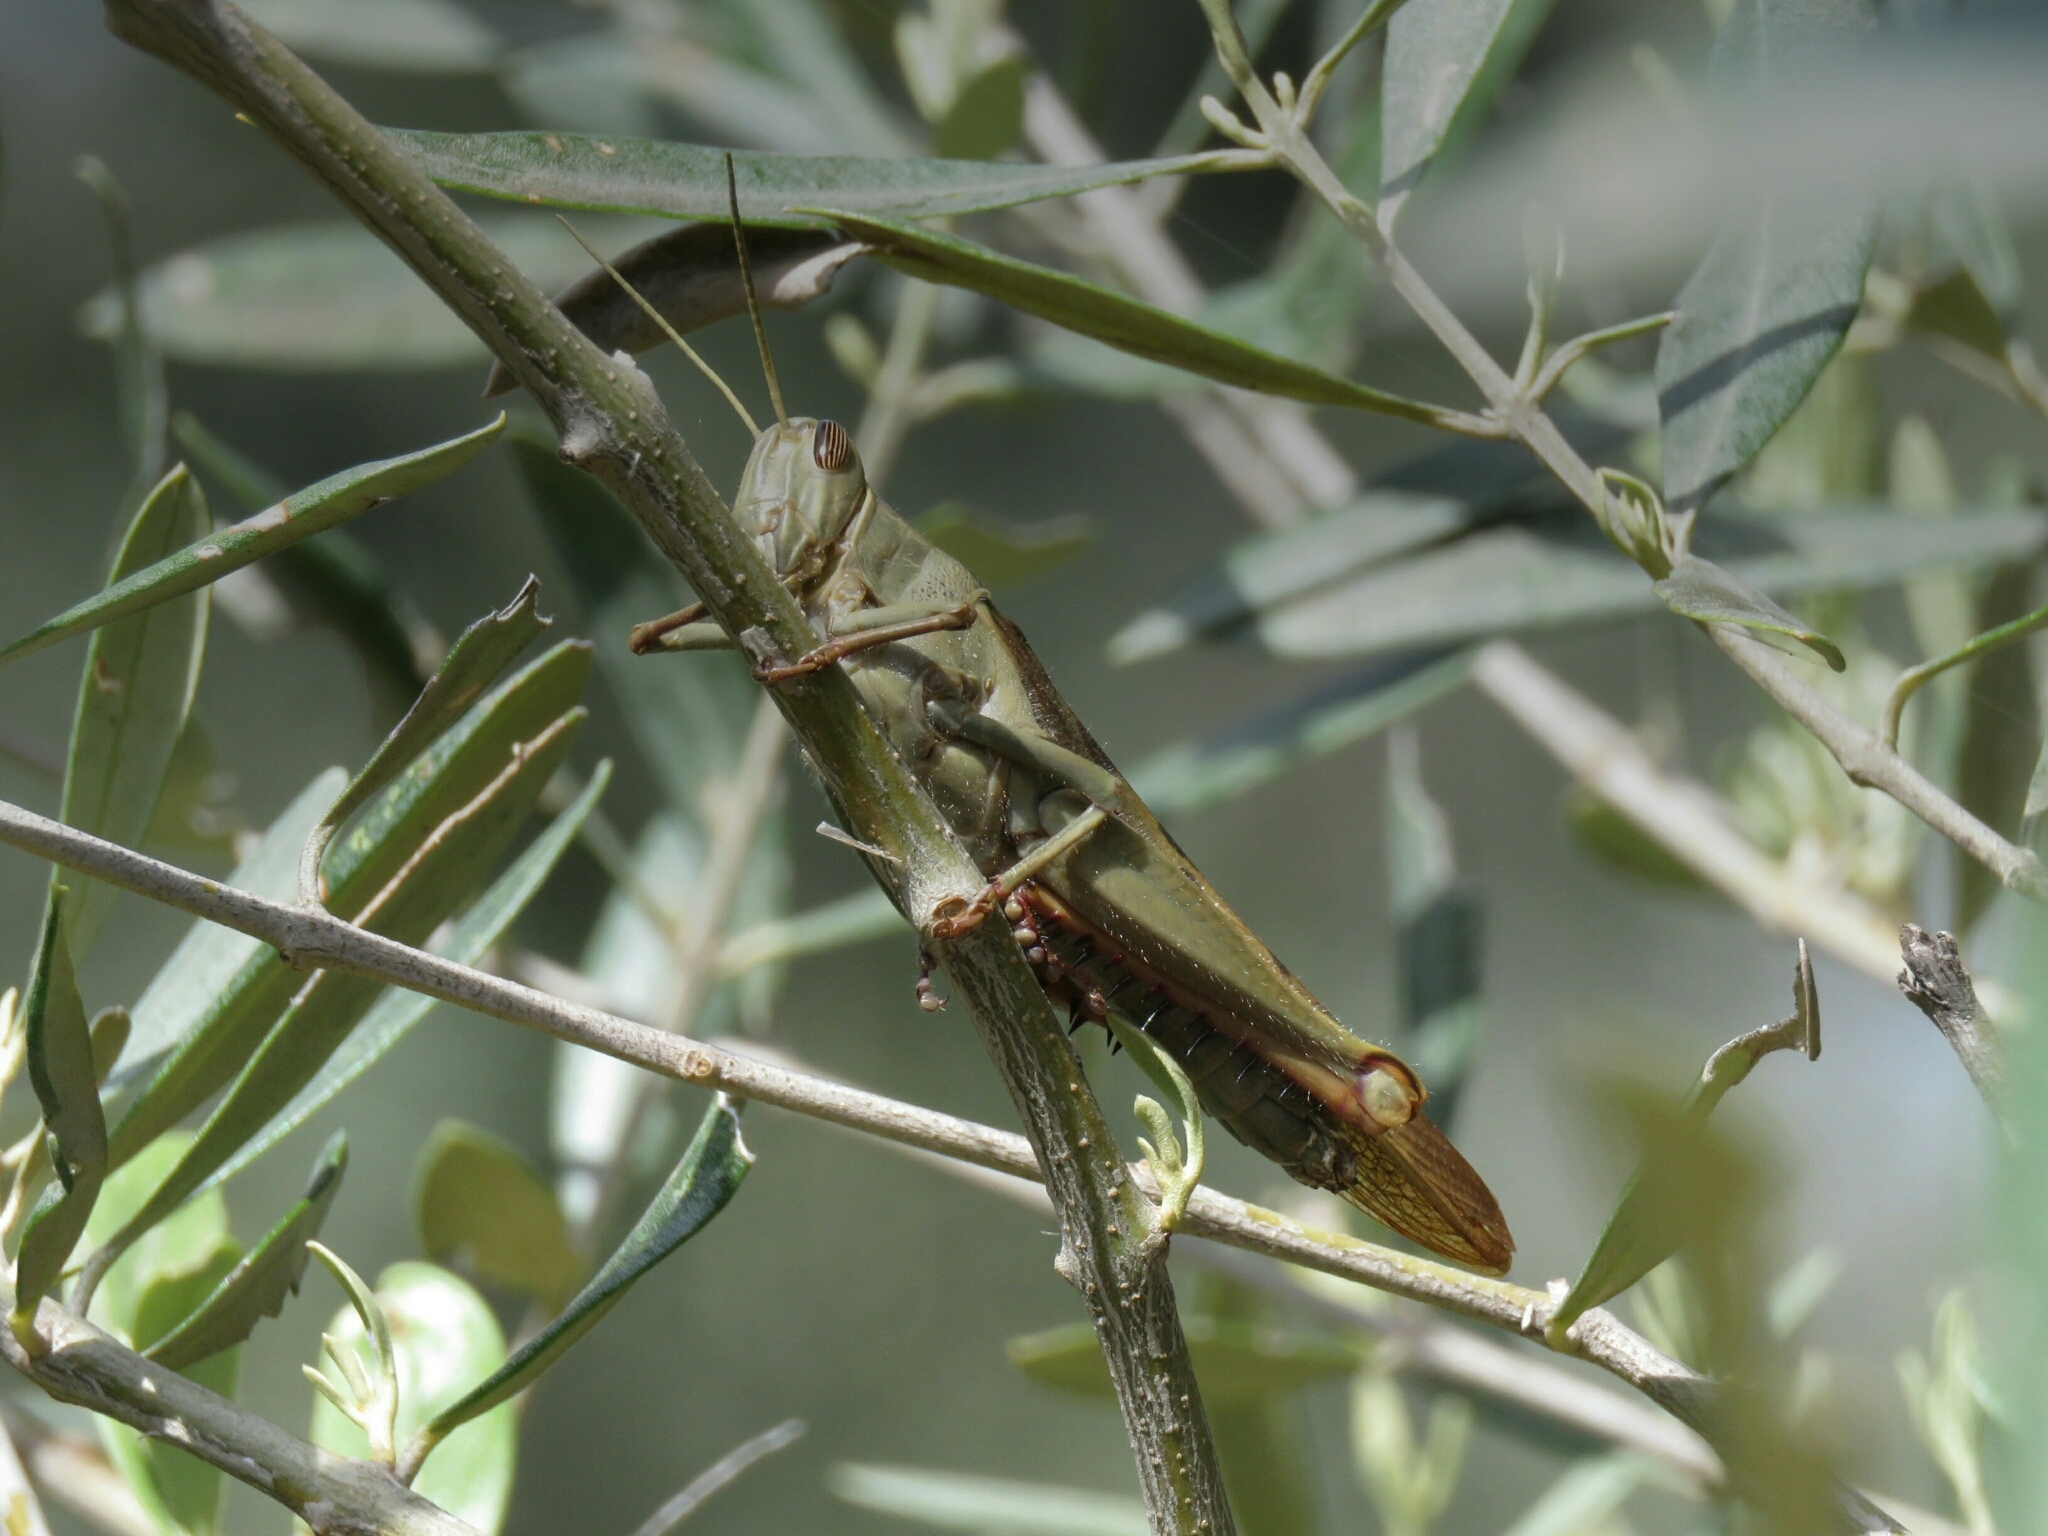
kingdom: Animalia
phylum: Arthropoda
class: Insecta
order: Orthoptera
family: Acrididae
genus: Acanthacris
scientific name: Acanthacris ruficornis
